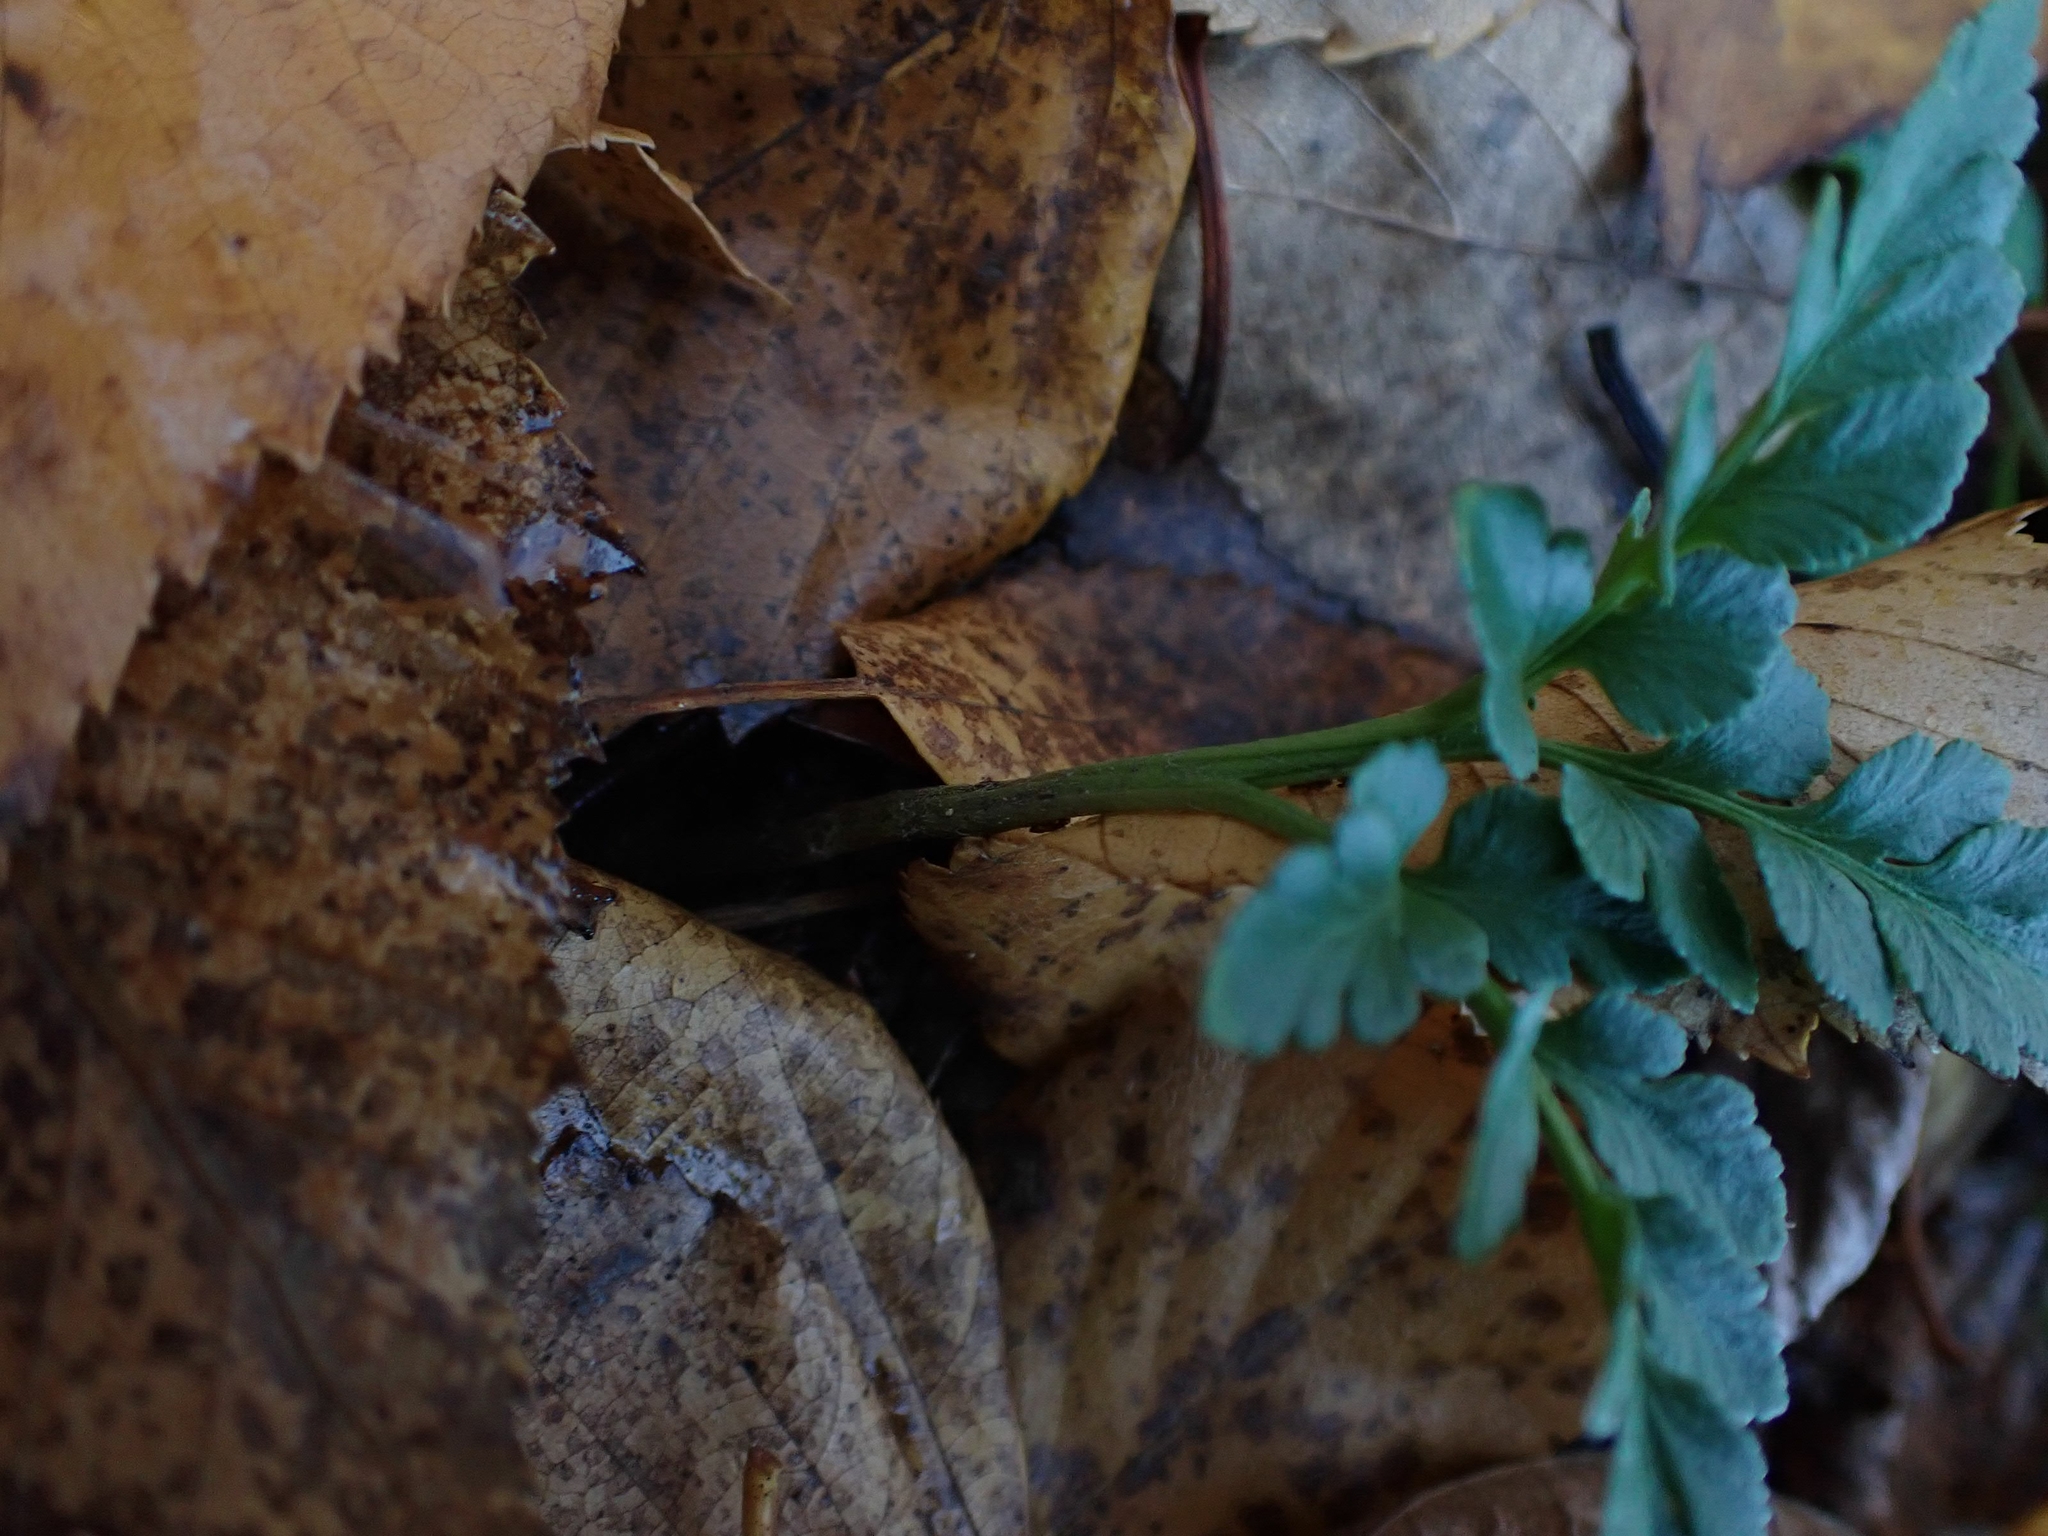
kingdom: Plantae
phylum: Tracheophyta
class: Polypodiopsida
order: Ophioglossales
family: Ophioglossaceae
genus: Sceptridium
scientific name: Sceptridium multifidum
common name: Leathery grape fern
